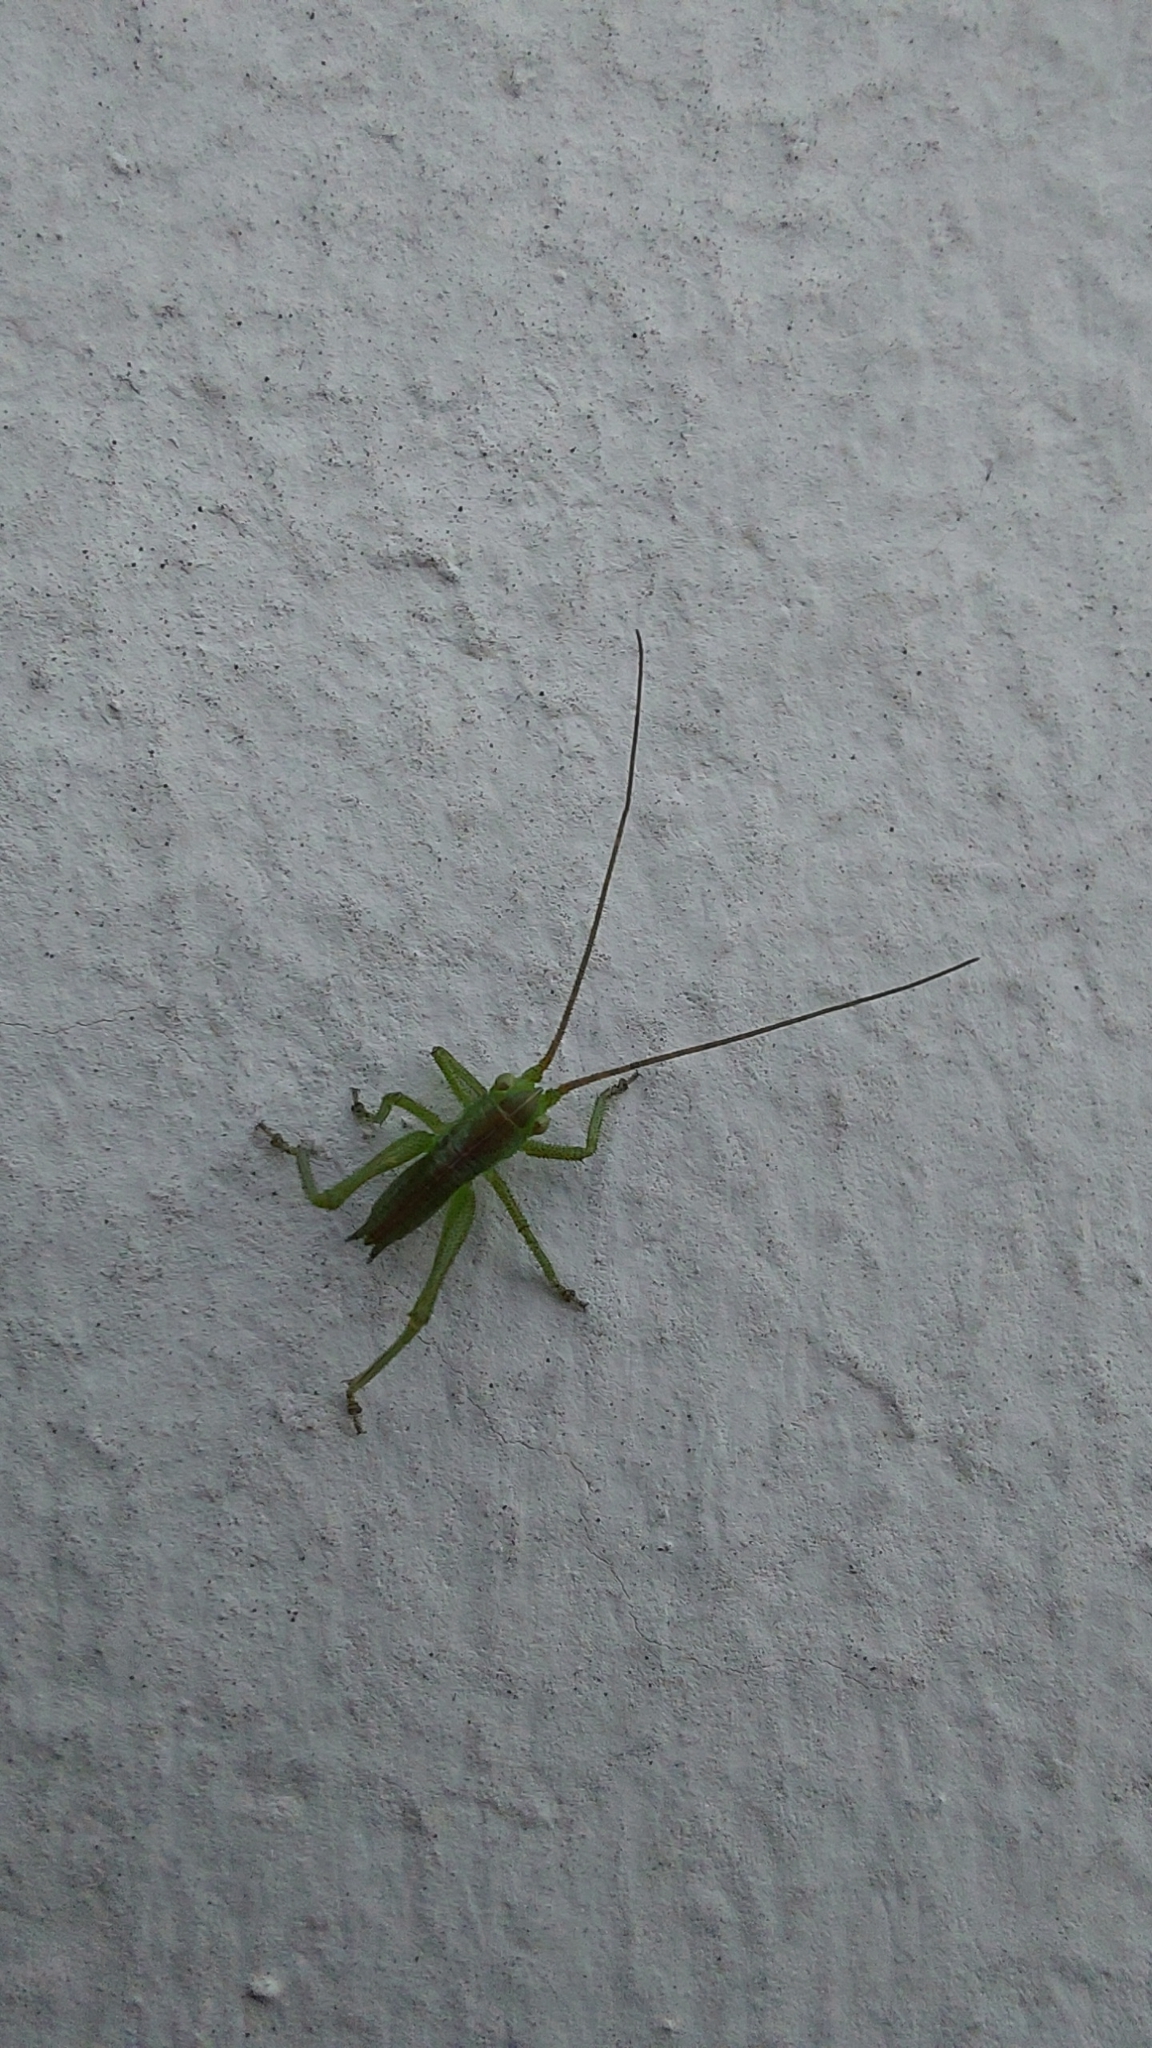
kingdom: Animalia
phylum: Arthropoda
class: Insecta
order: Orthoptera
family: Tettigoniidae
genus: Tettigonia
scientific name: Tettigonia viridissima
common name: Great green bush-cricket
